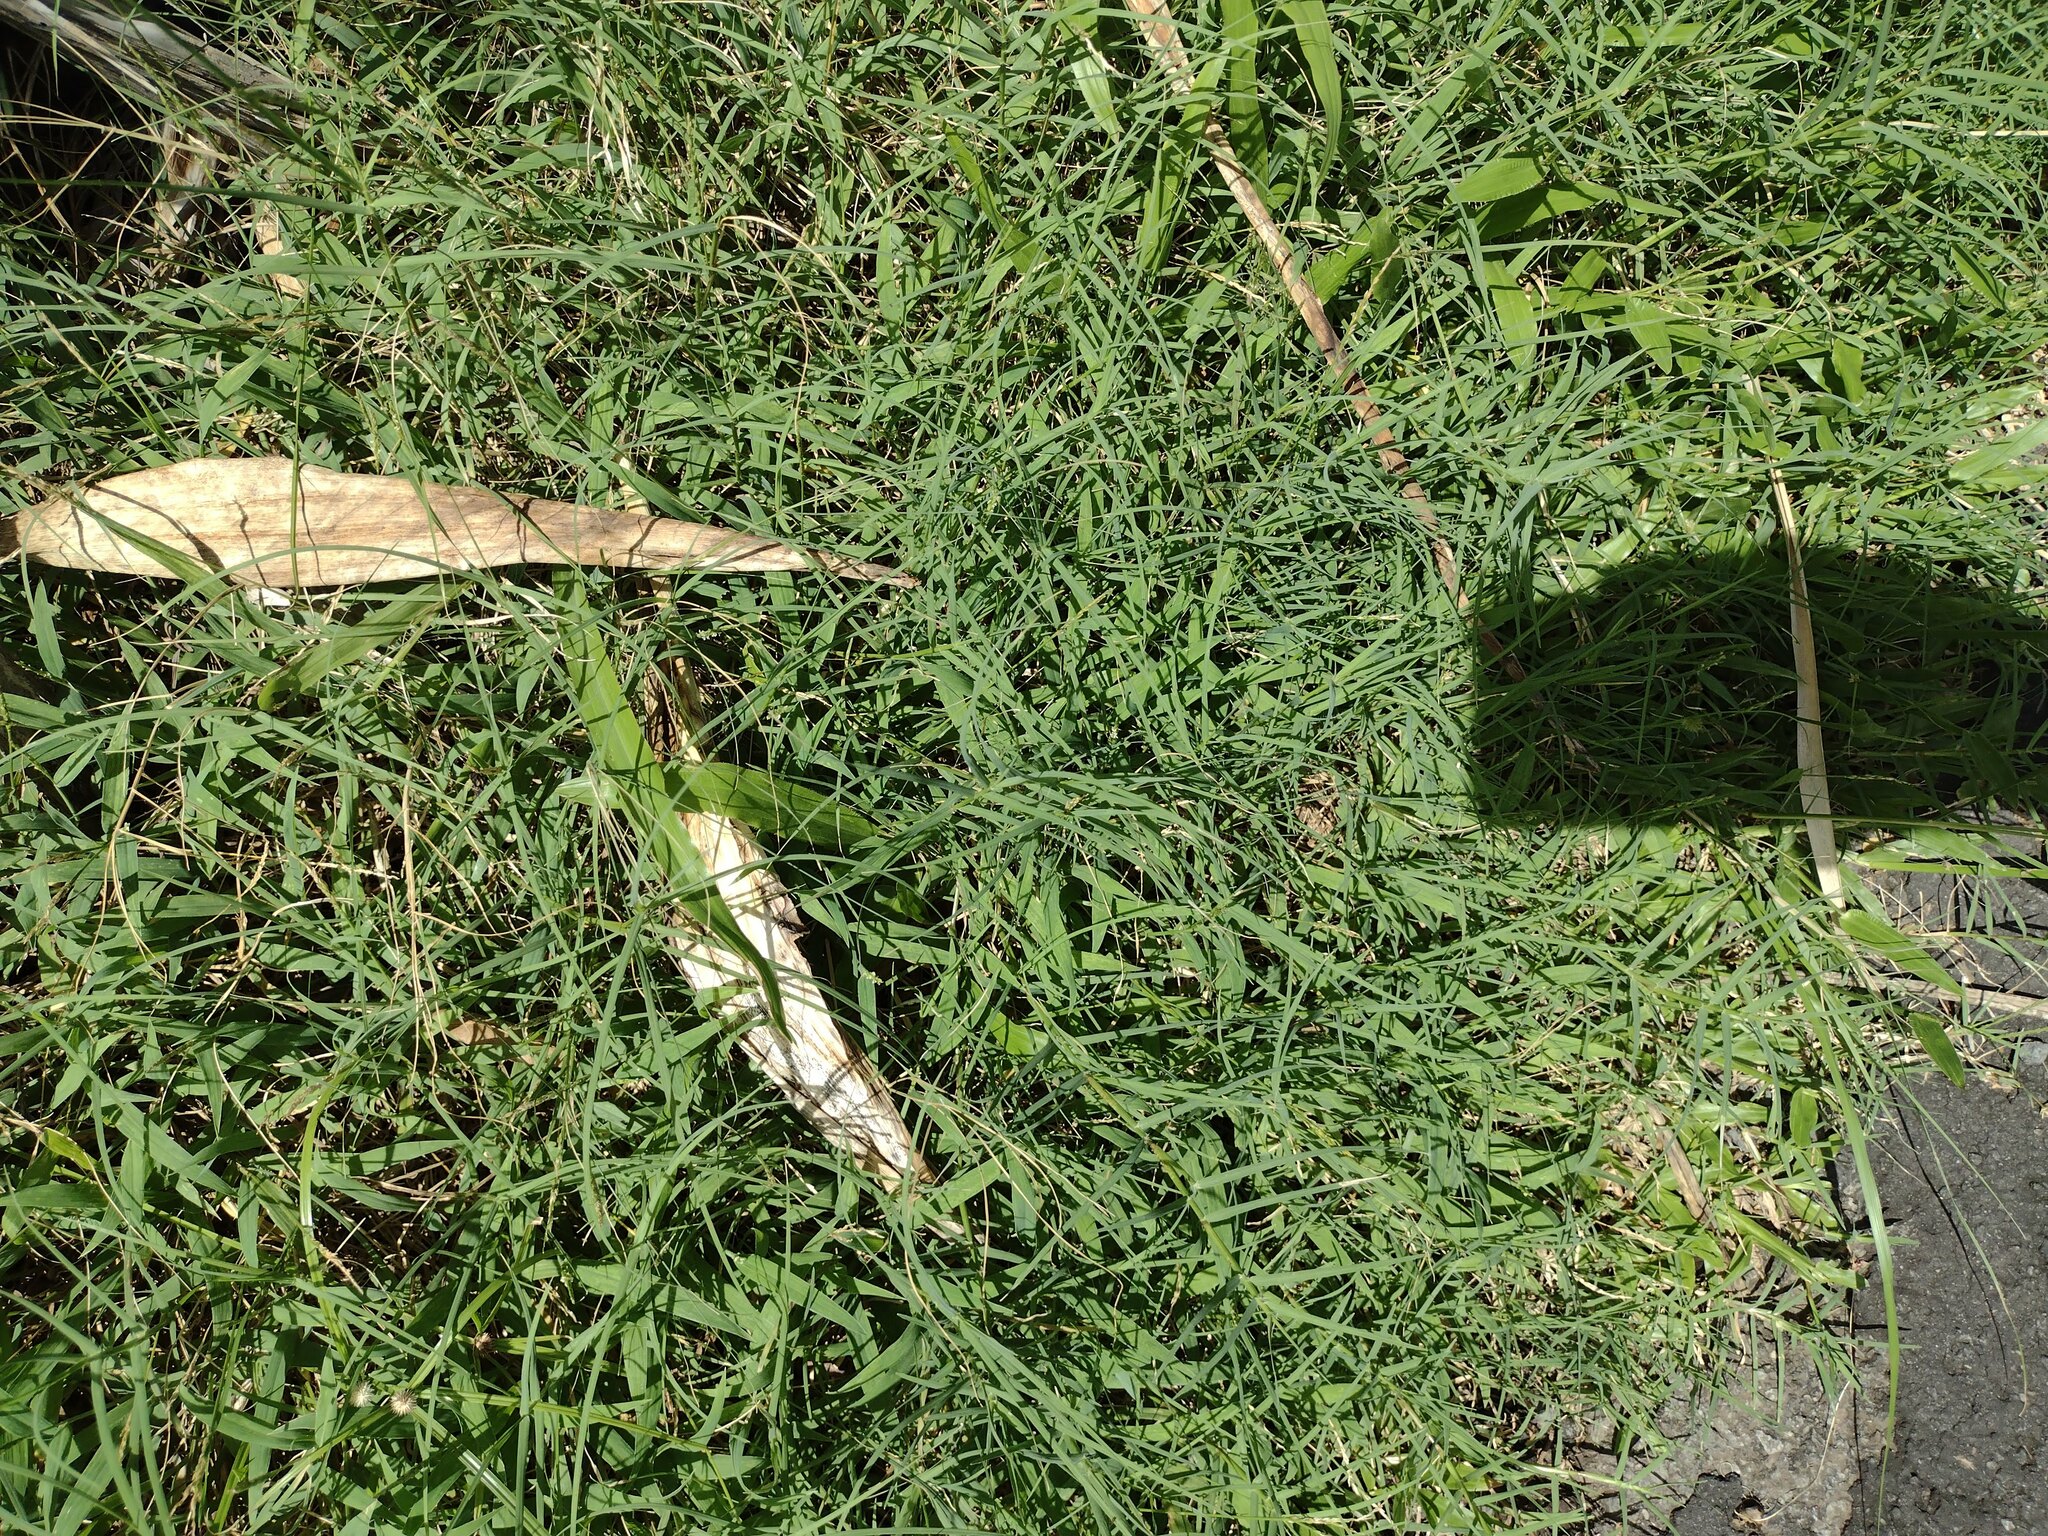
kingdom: Plantae
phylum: Tracheophyta
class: Liliopsida
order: Poales
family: Poaceae
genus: Cynodon
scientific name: Cynodon dactylon
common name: Bermuda grass
